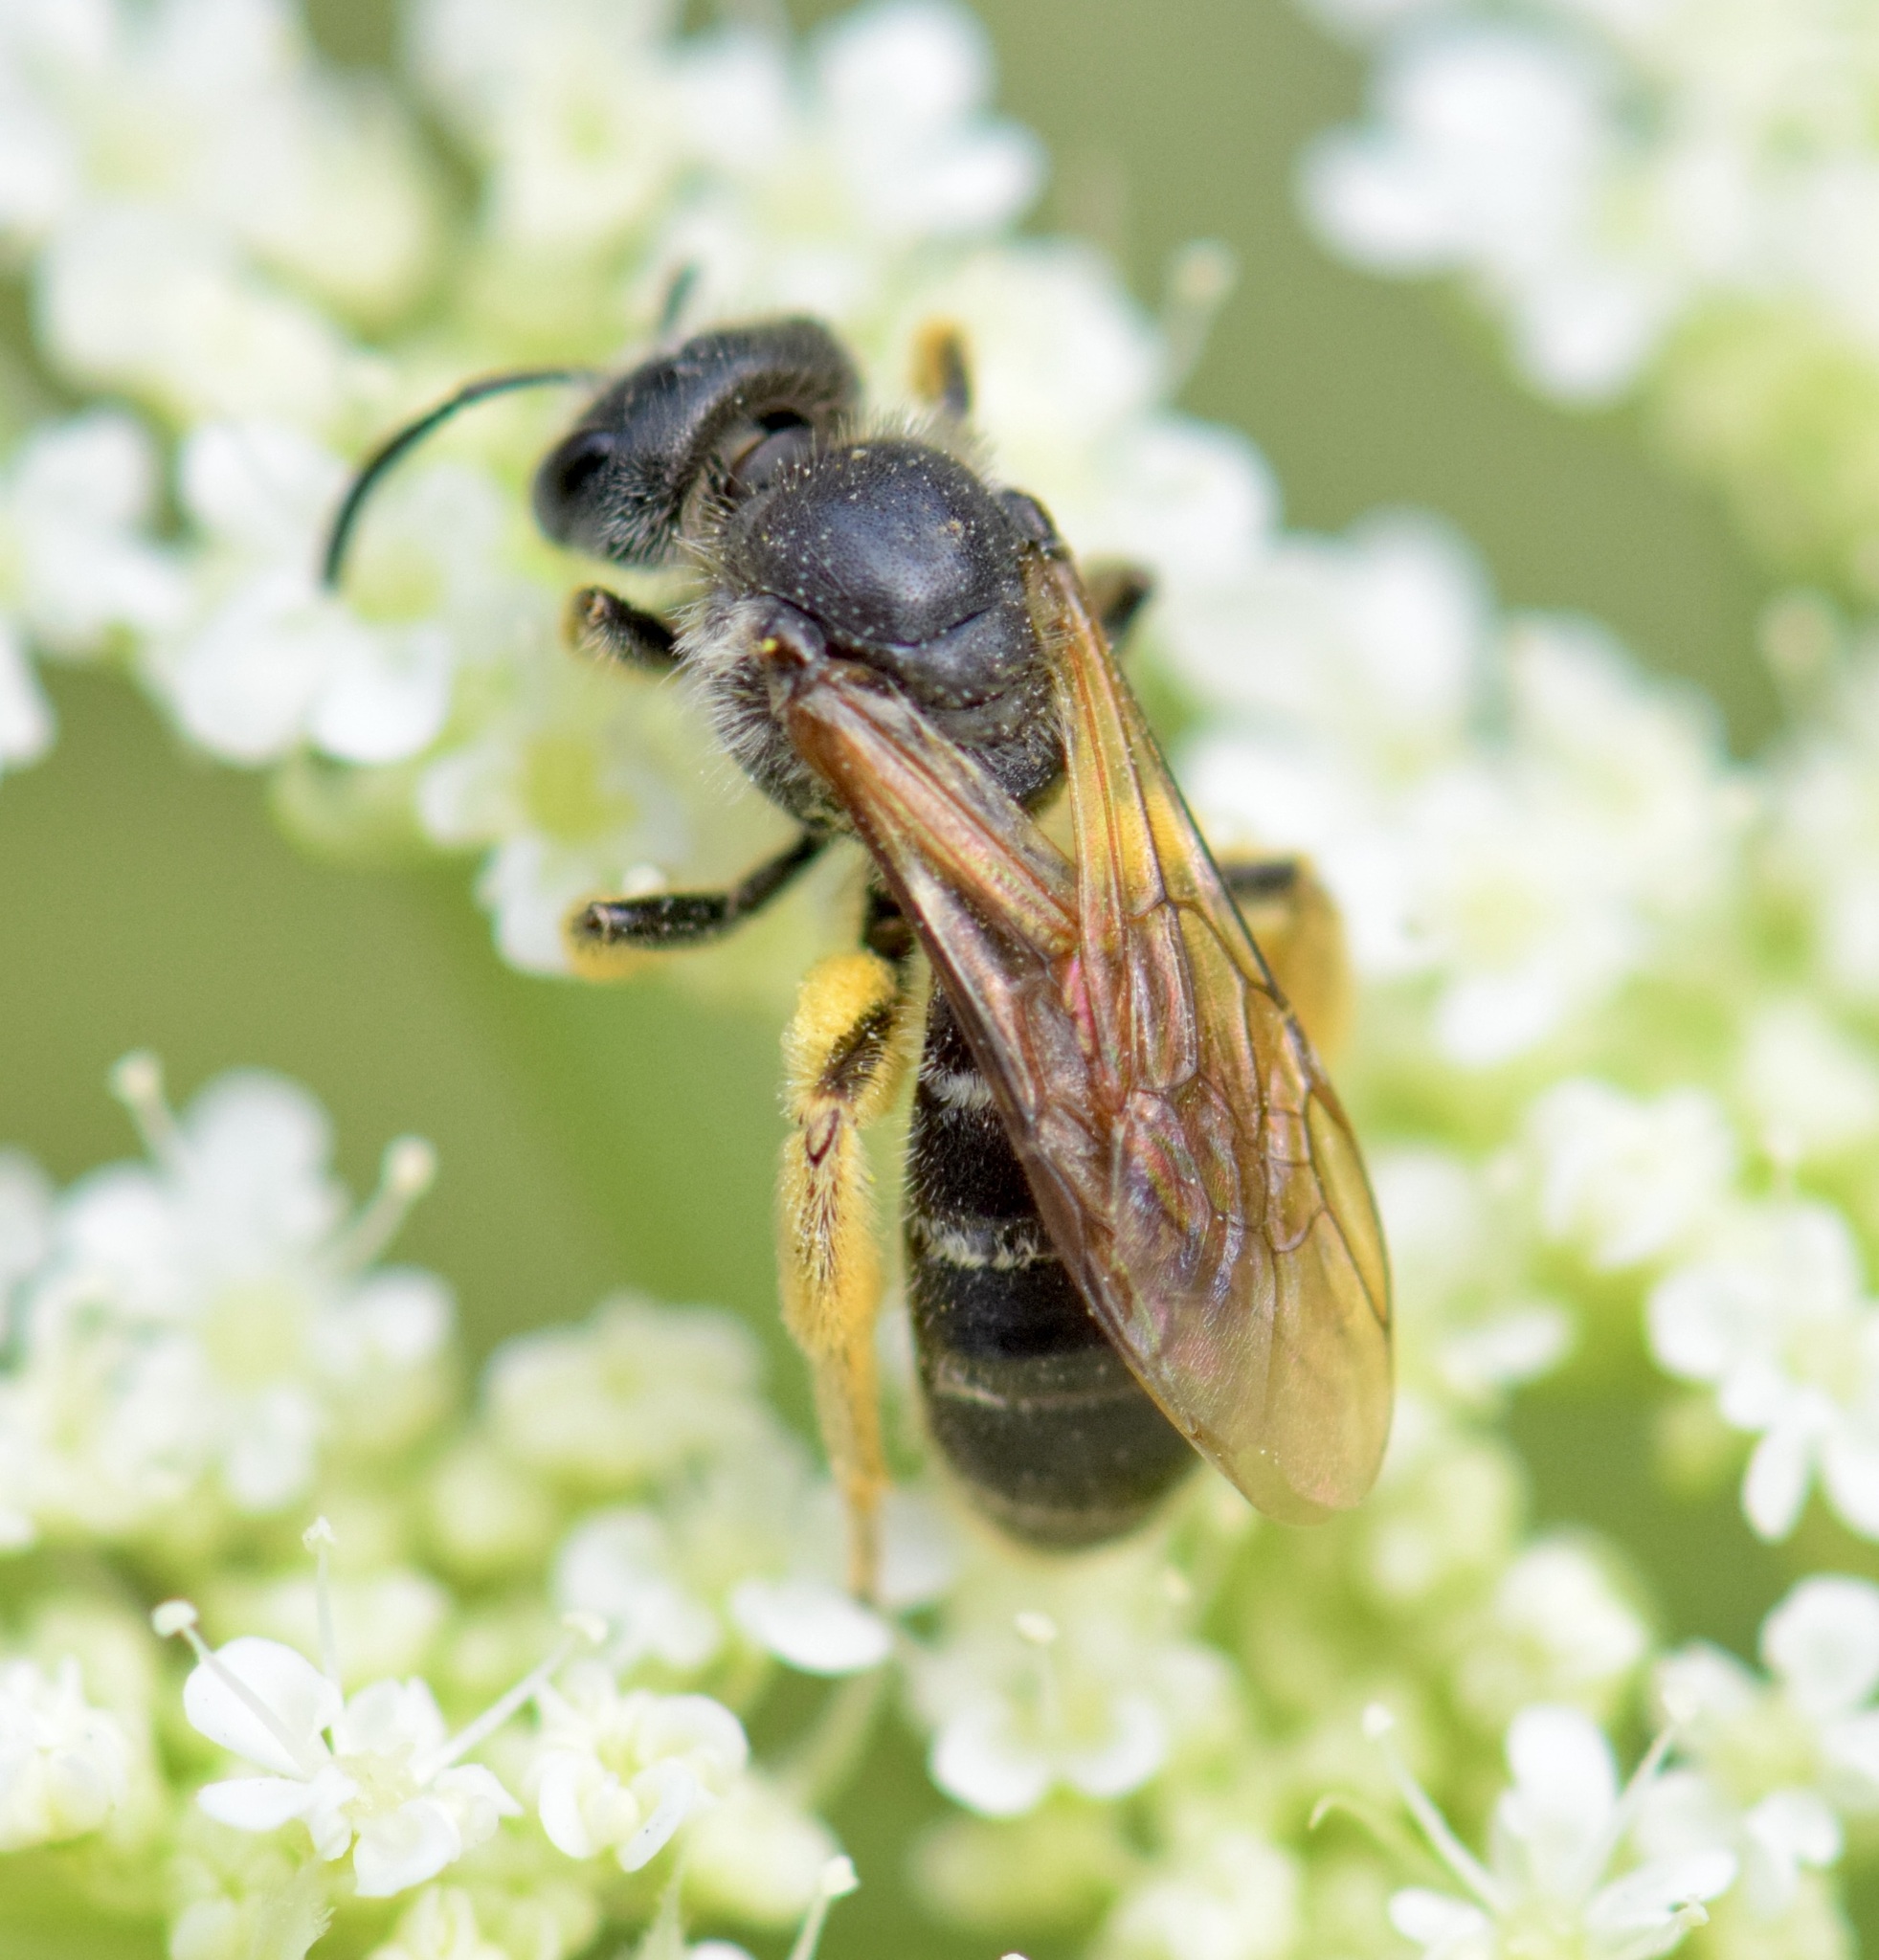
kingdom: Animalia
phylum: Arthropoda
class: Insecta
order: Hymenoptera
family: Halictidae
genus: Halictus
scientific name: Halictus rubicundus
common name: Orange-legged furrow bee
